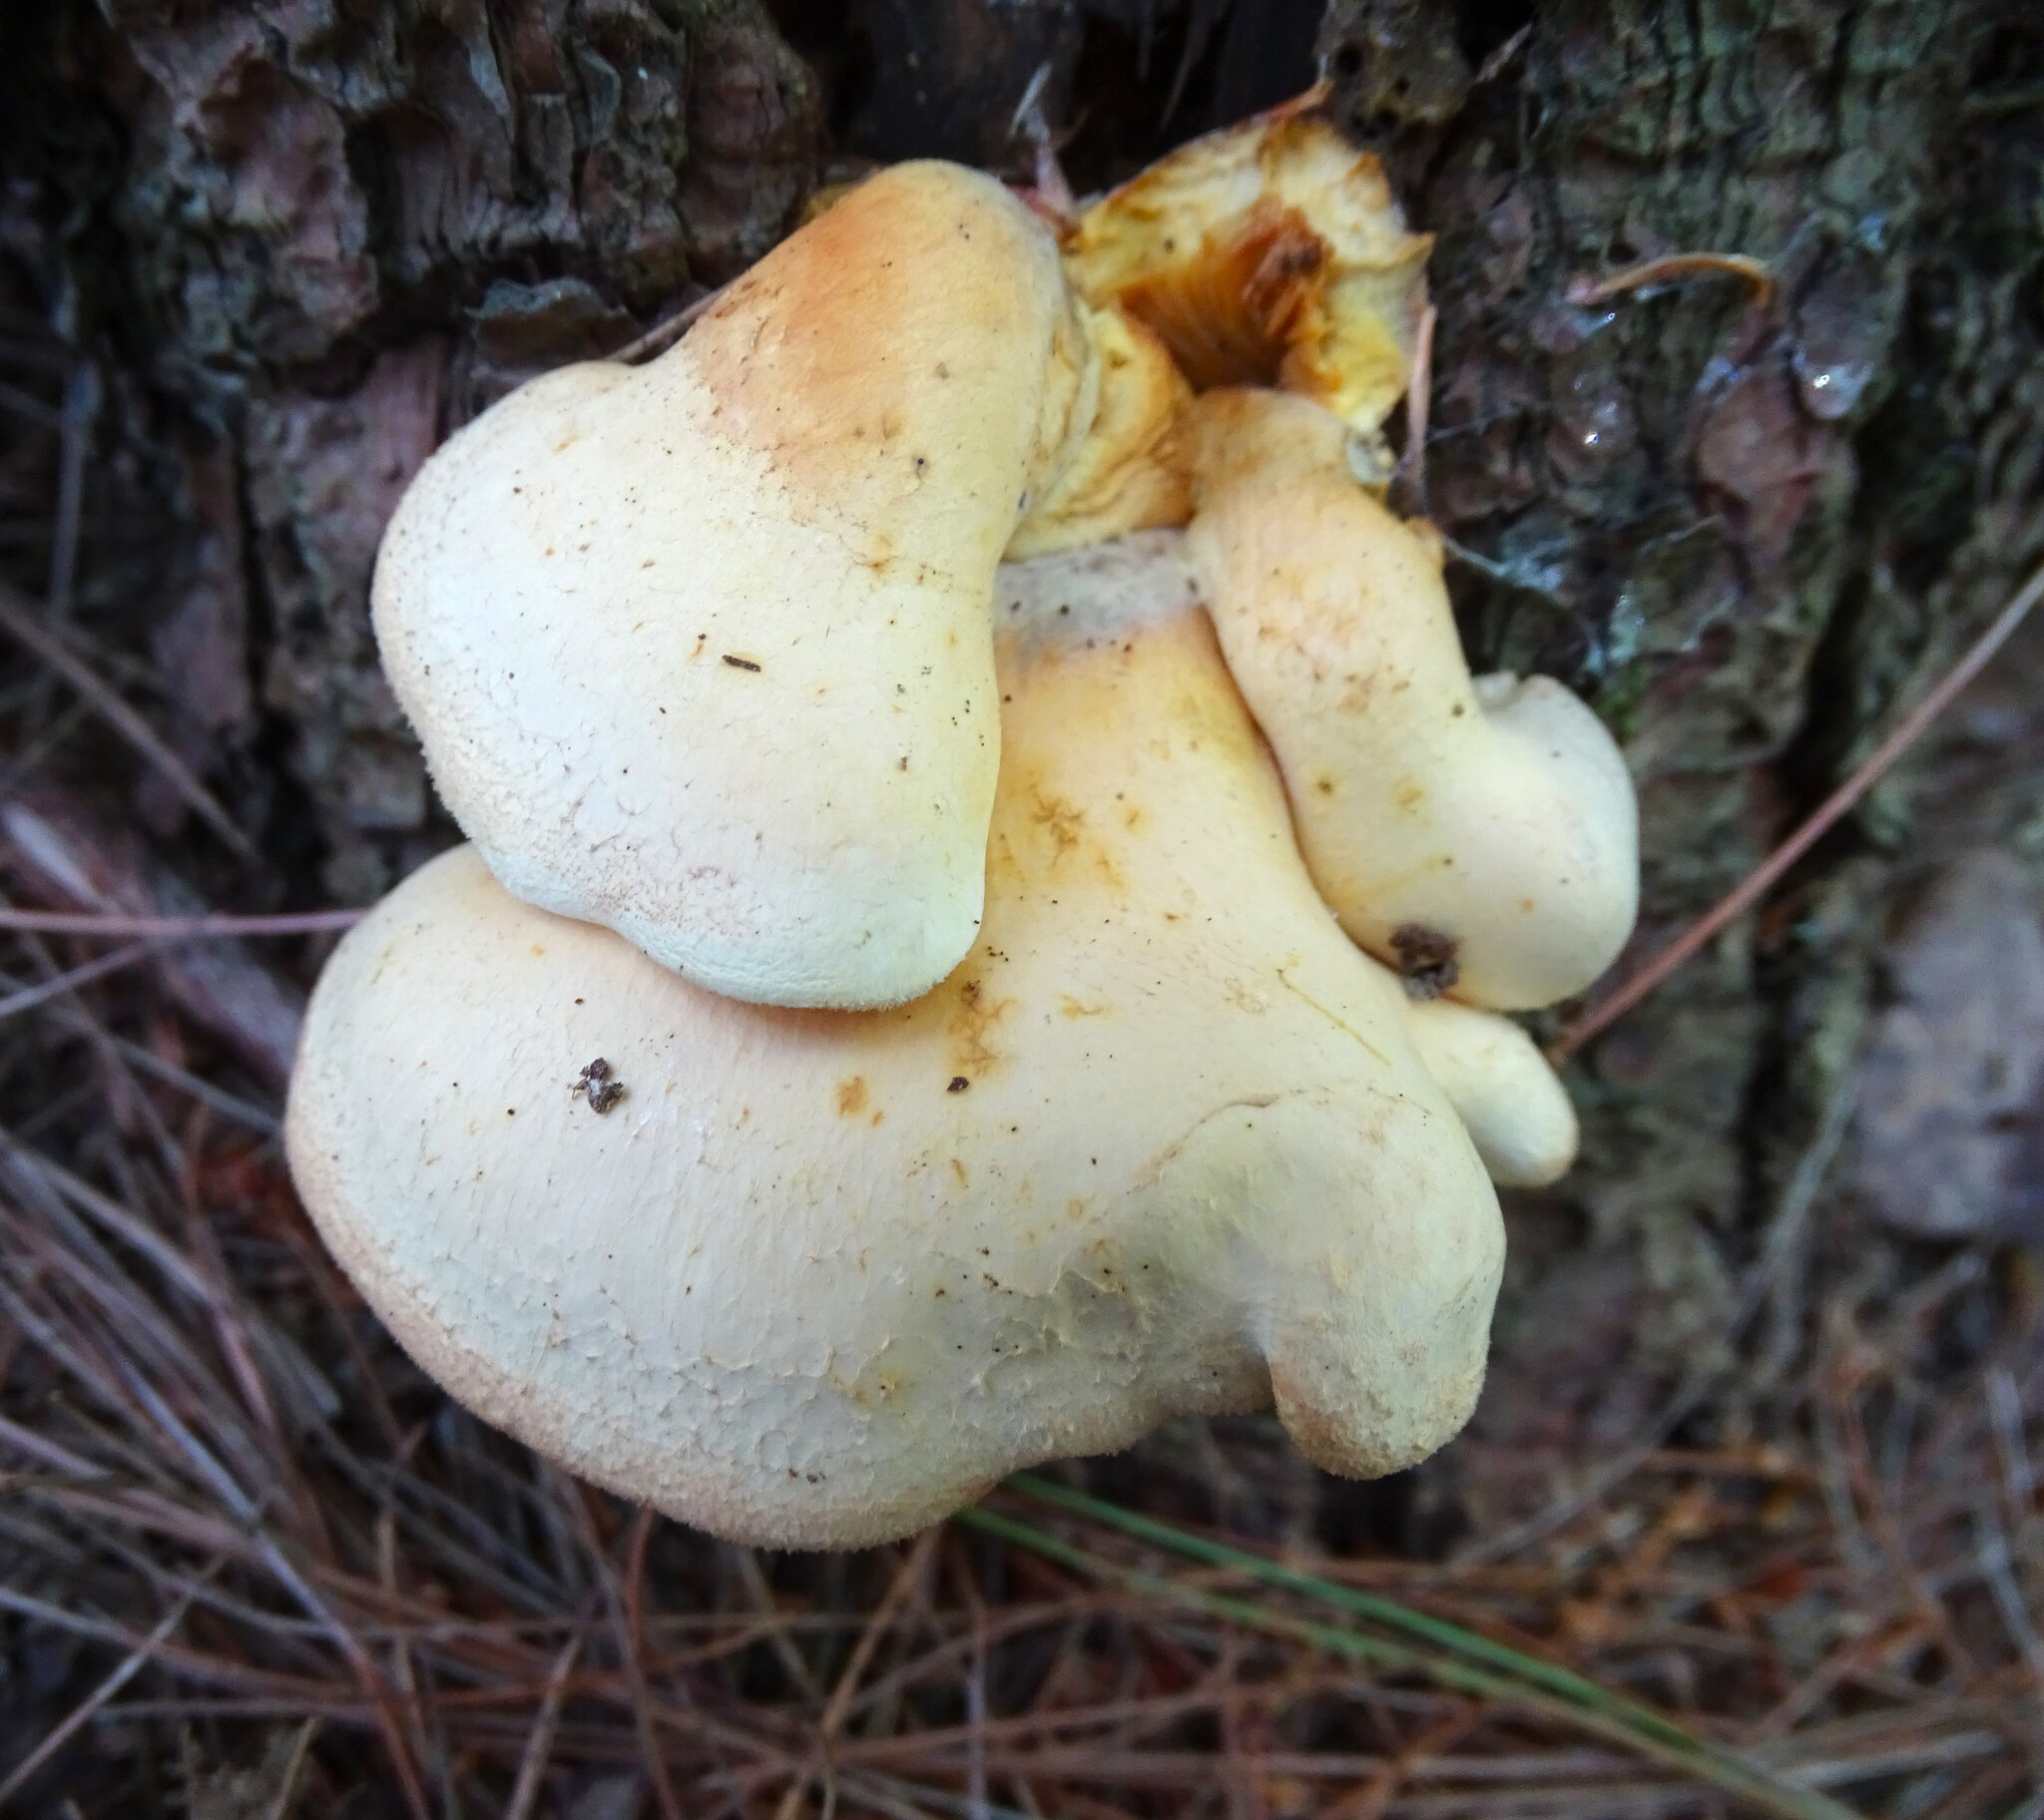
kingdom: Fungi
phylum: Basidiomycota
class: Agaricomycetes
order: Boletales
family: Tapinellaceae
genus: Tapinella
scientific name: Tapinella panuoides
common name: Oyster rollrim
